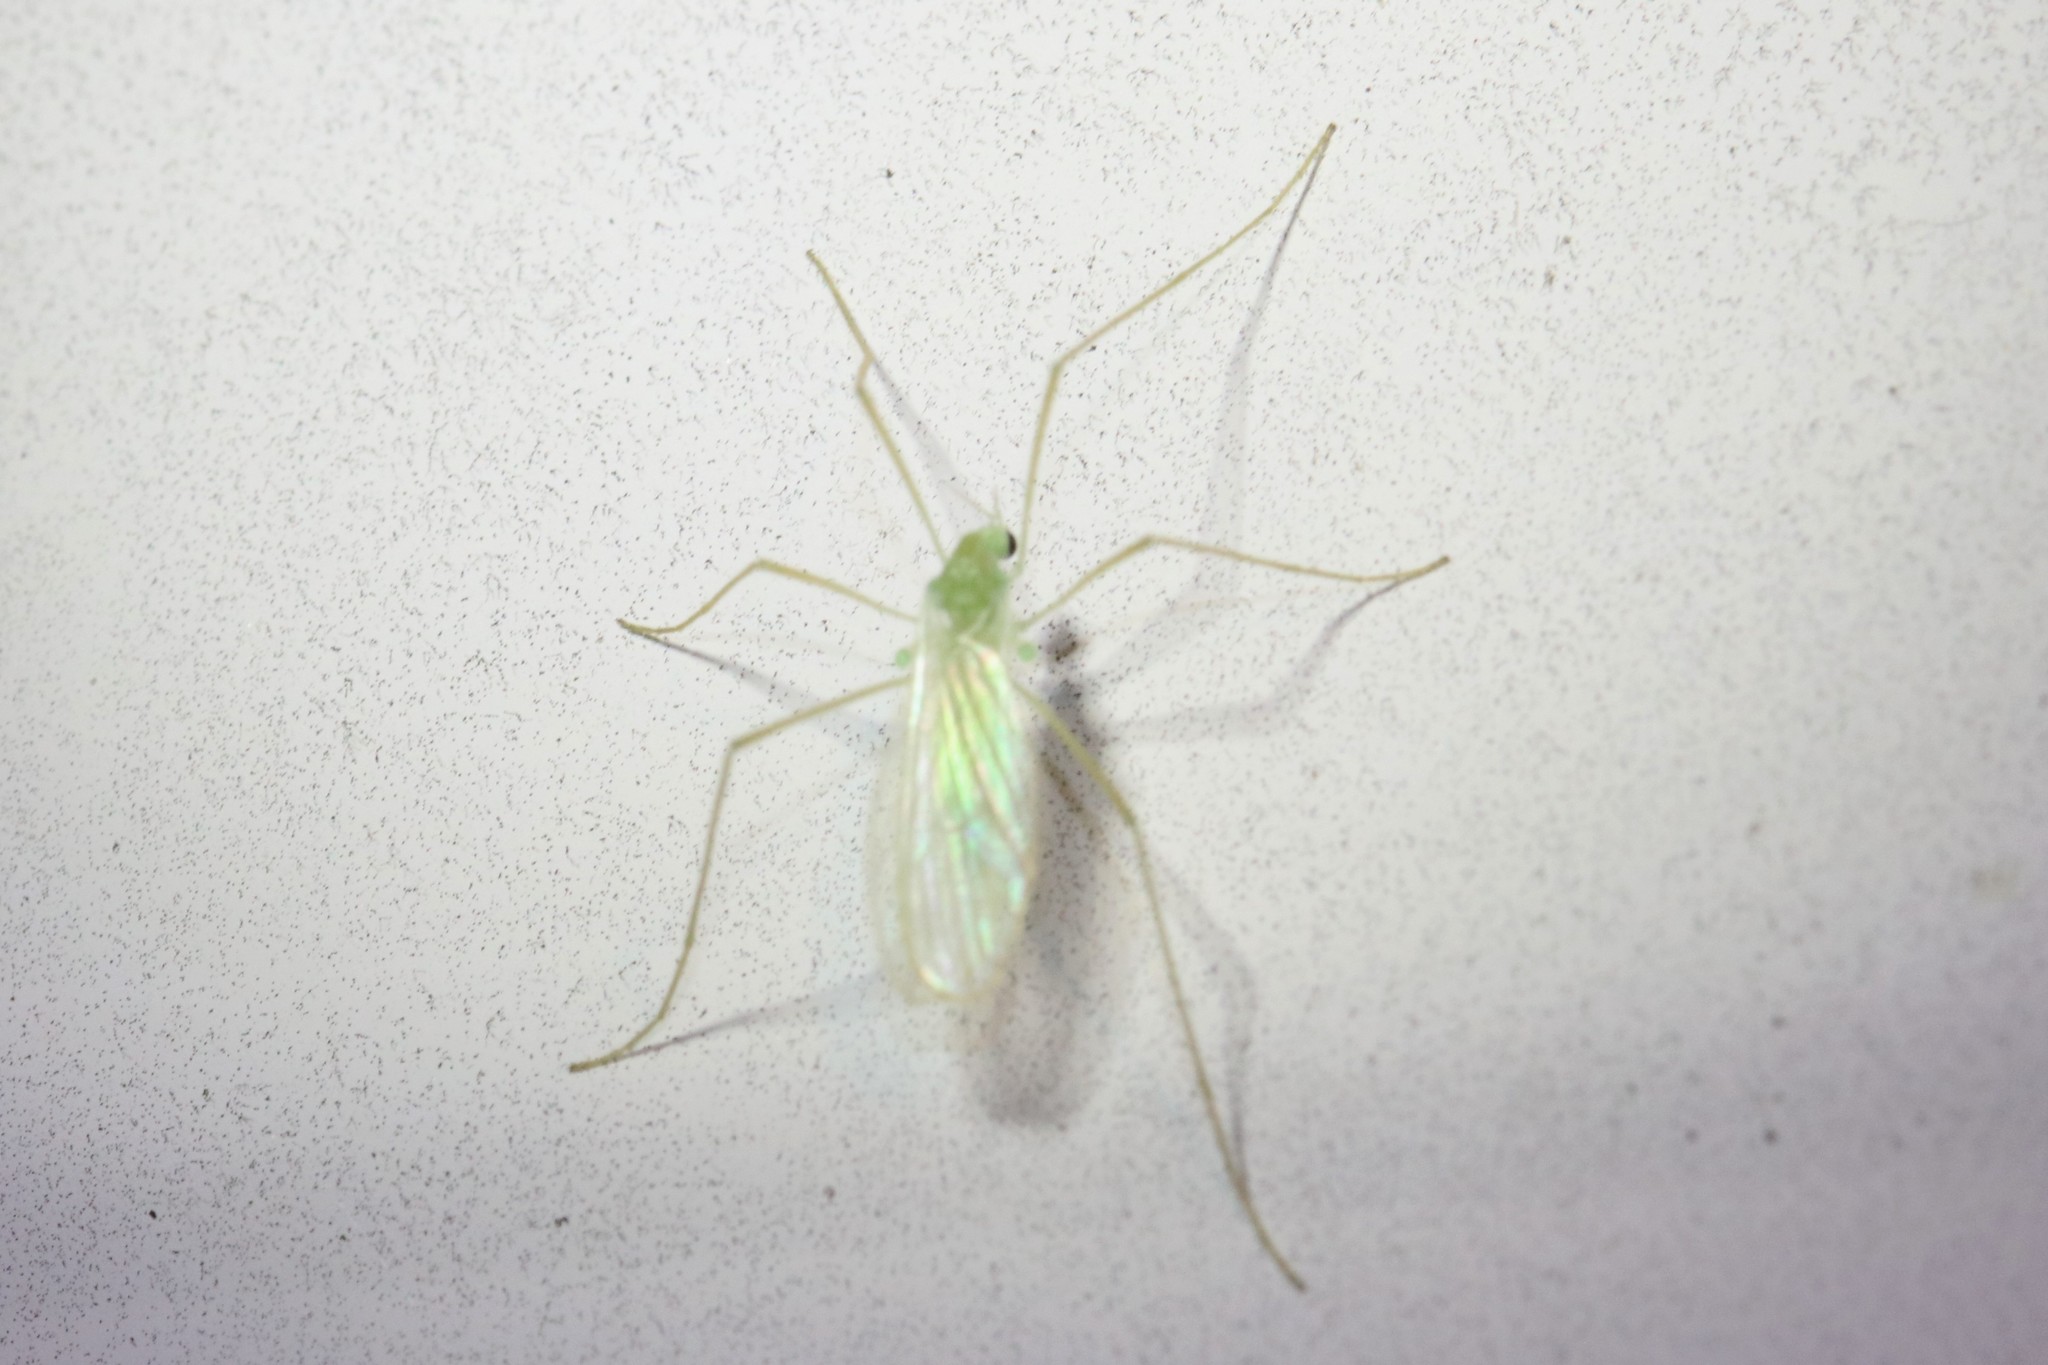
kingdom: Animalia
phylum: Arthropoda
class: Insecta
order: Diptera
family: Limoniidae
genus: Erioptera
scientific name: Erioptera
